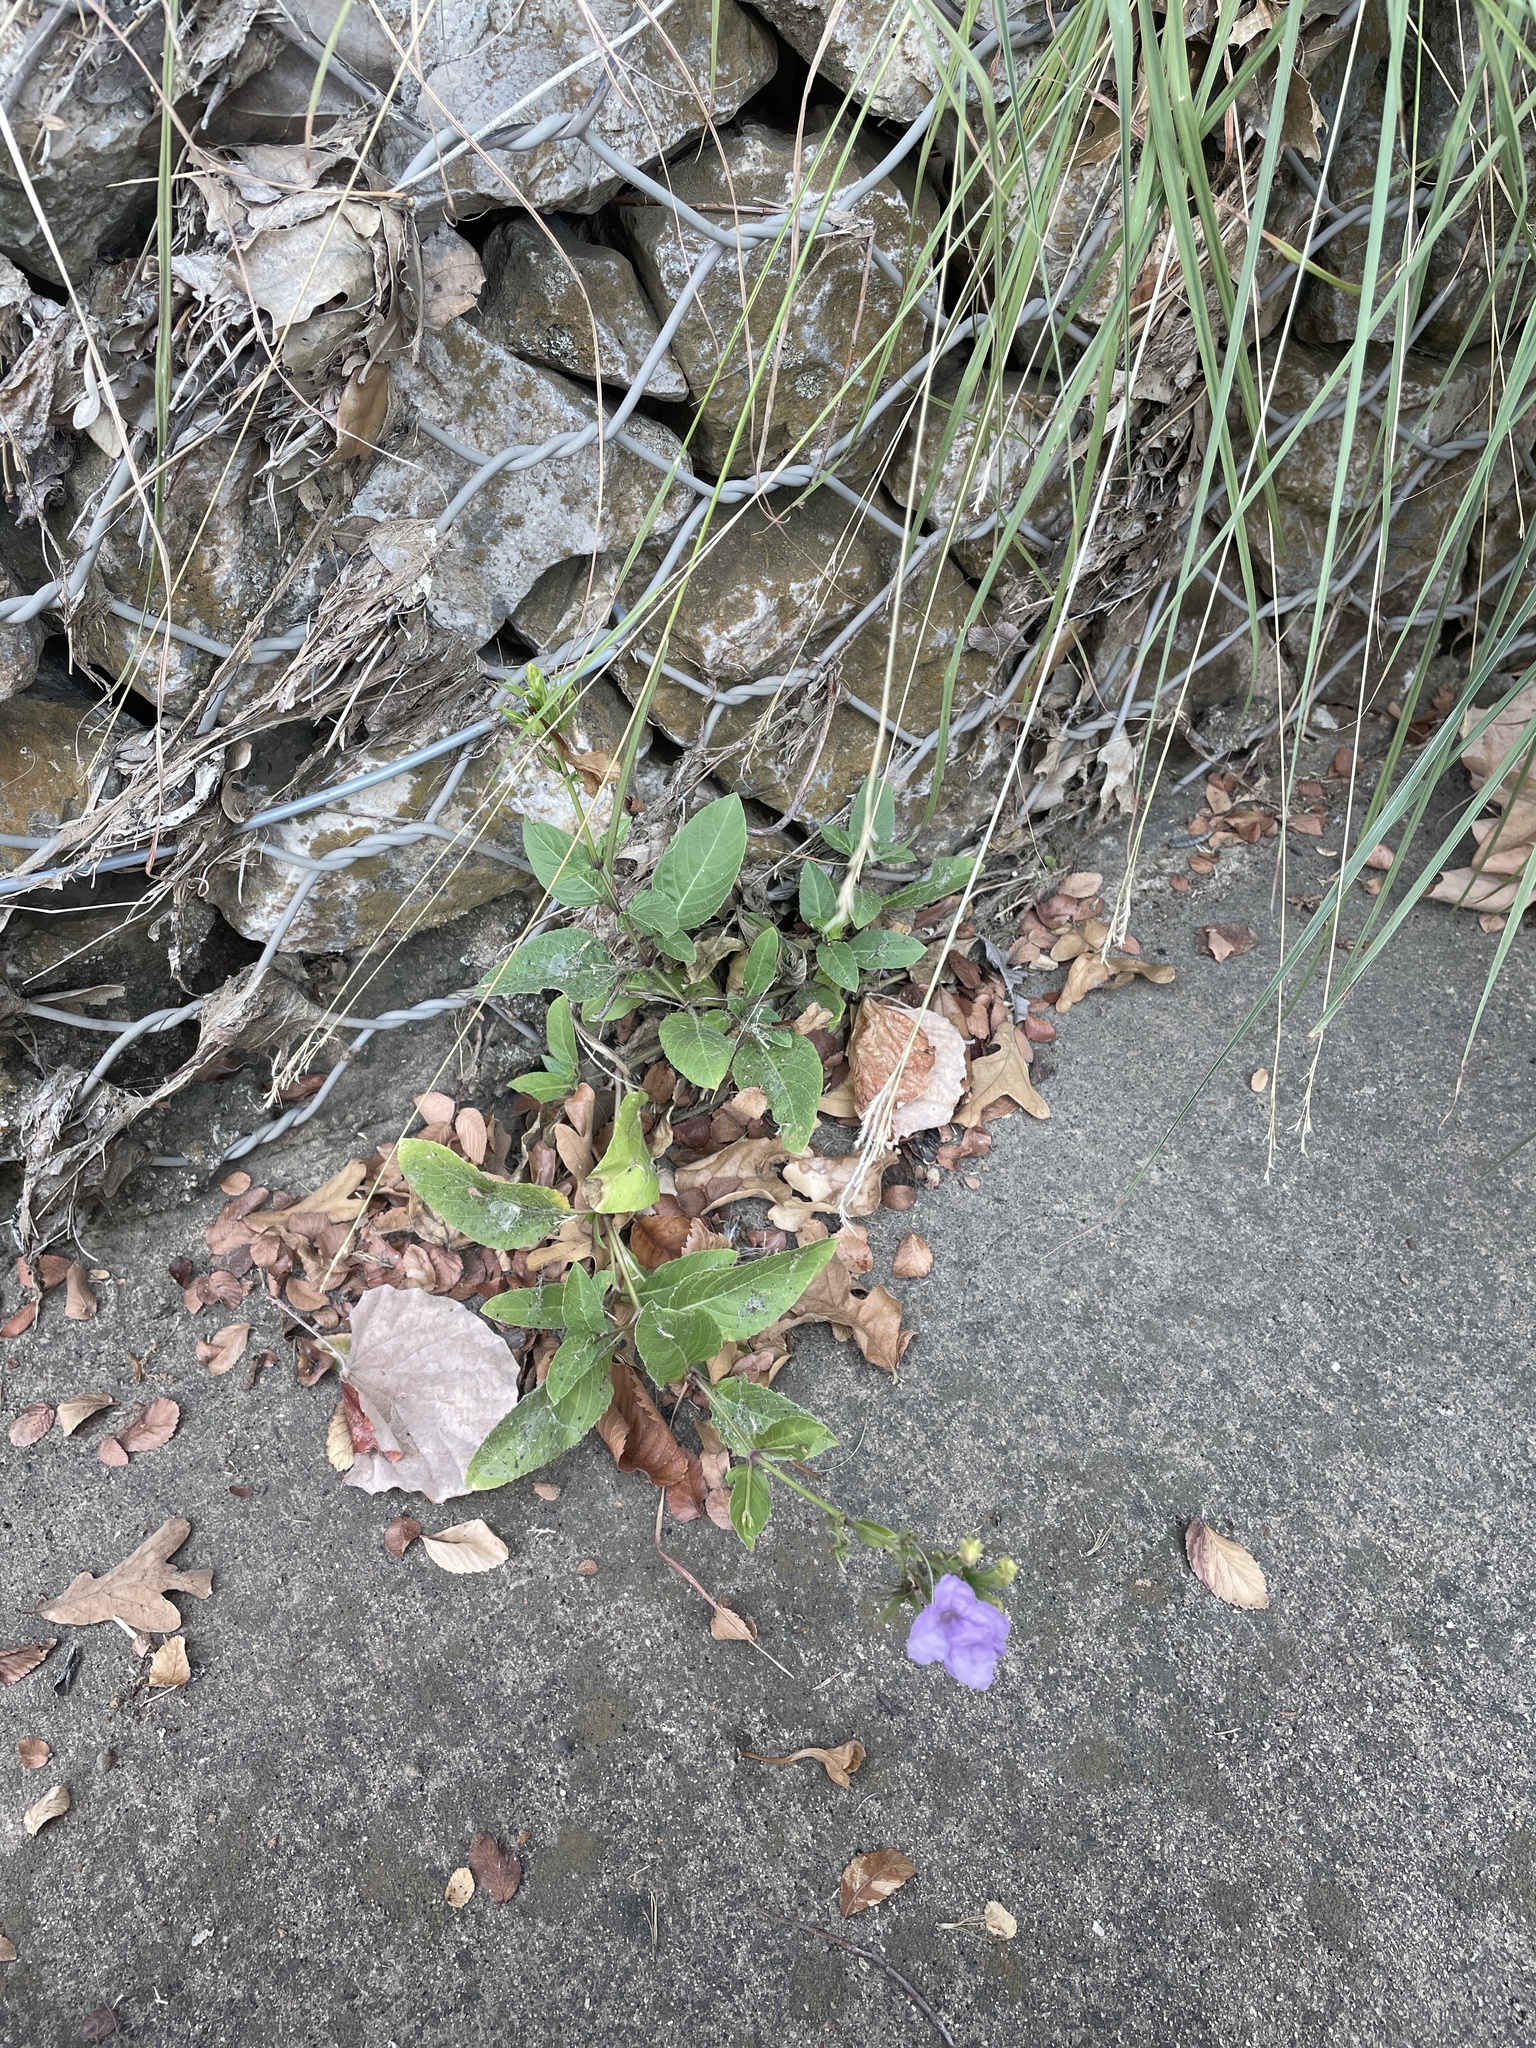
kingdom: Plantae
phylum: Tracheophyta
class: Magnoliopsida
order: Lamiales
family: Acanthaceae
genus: Ruellia
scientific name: Ruellia ciliatiflora
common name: Hairyflower wild petunia
